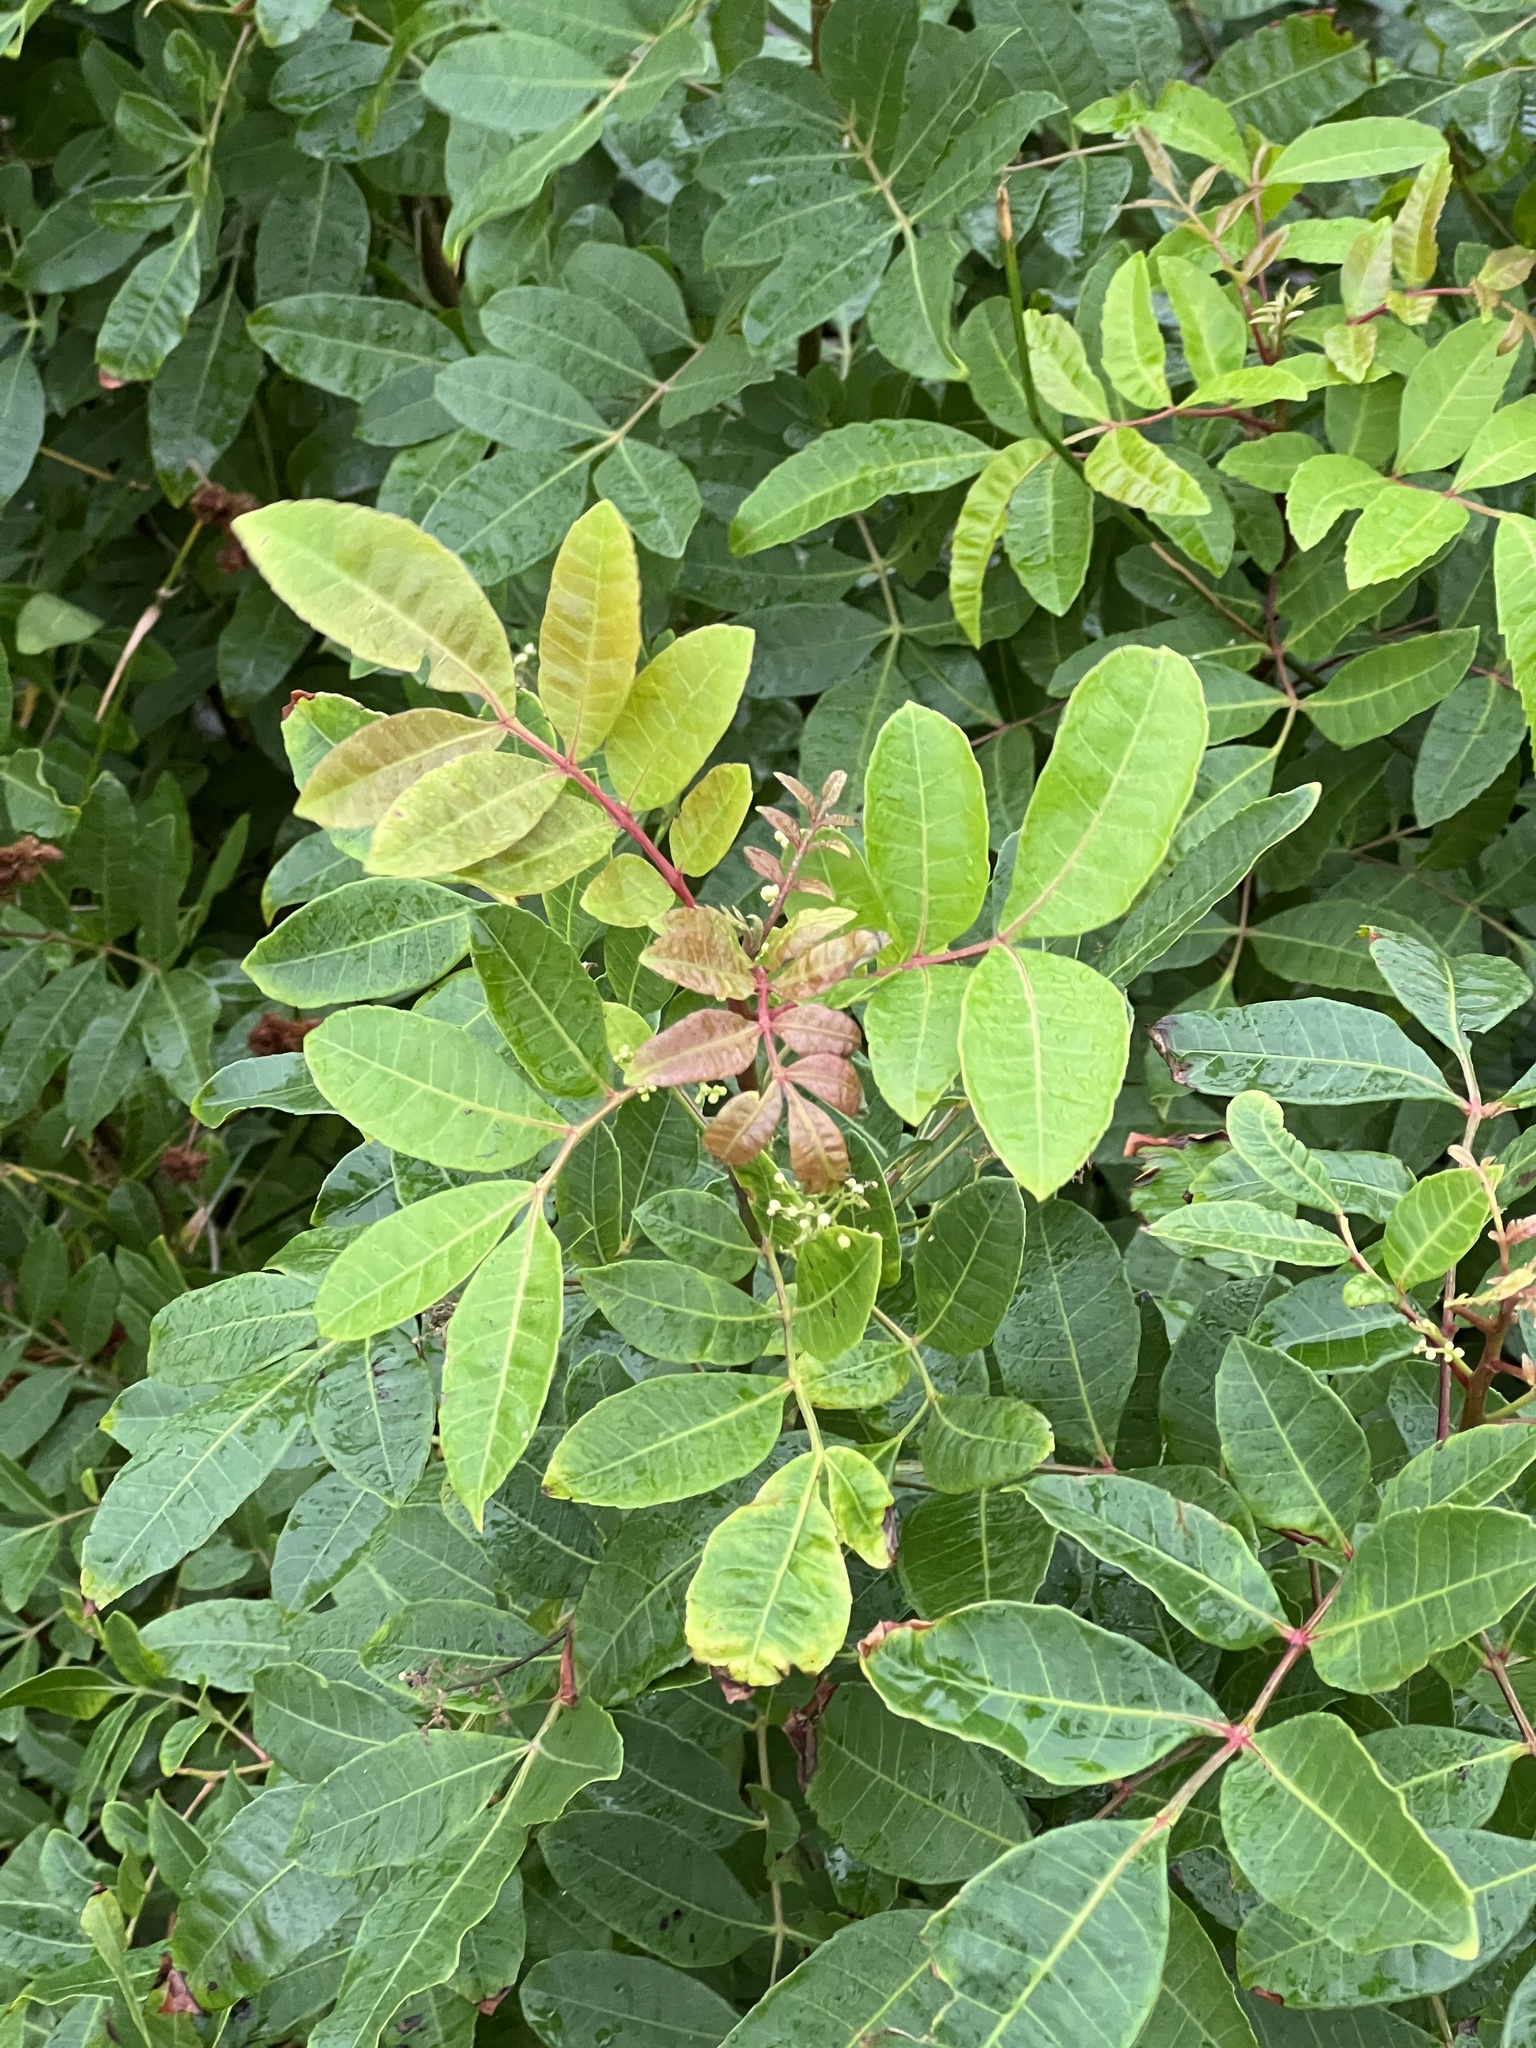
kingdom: Plantae
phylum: Tracheophyta
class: Magnoliopsida
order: Sapindales
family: Anacardiaceae
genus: Schinus
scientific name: Schinus terebinthifolia
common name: Brazilian peppertree
